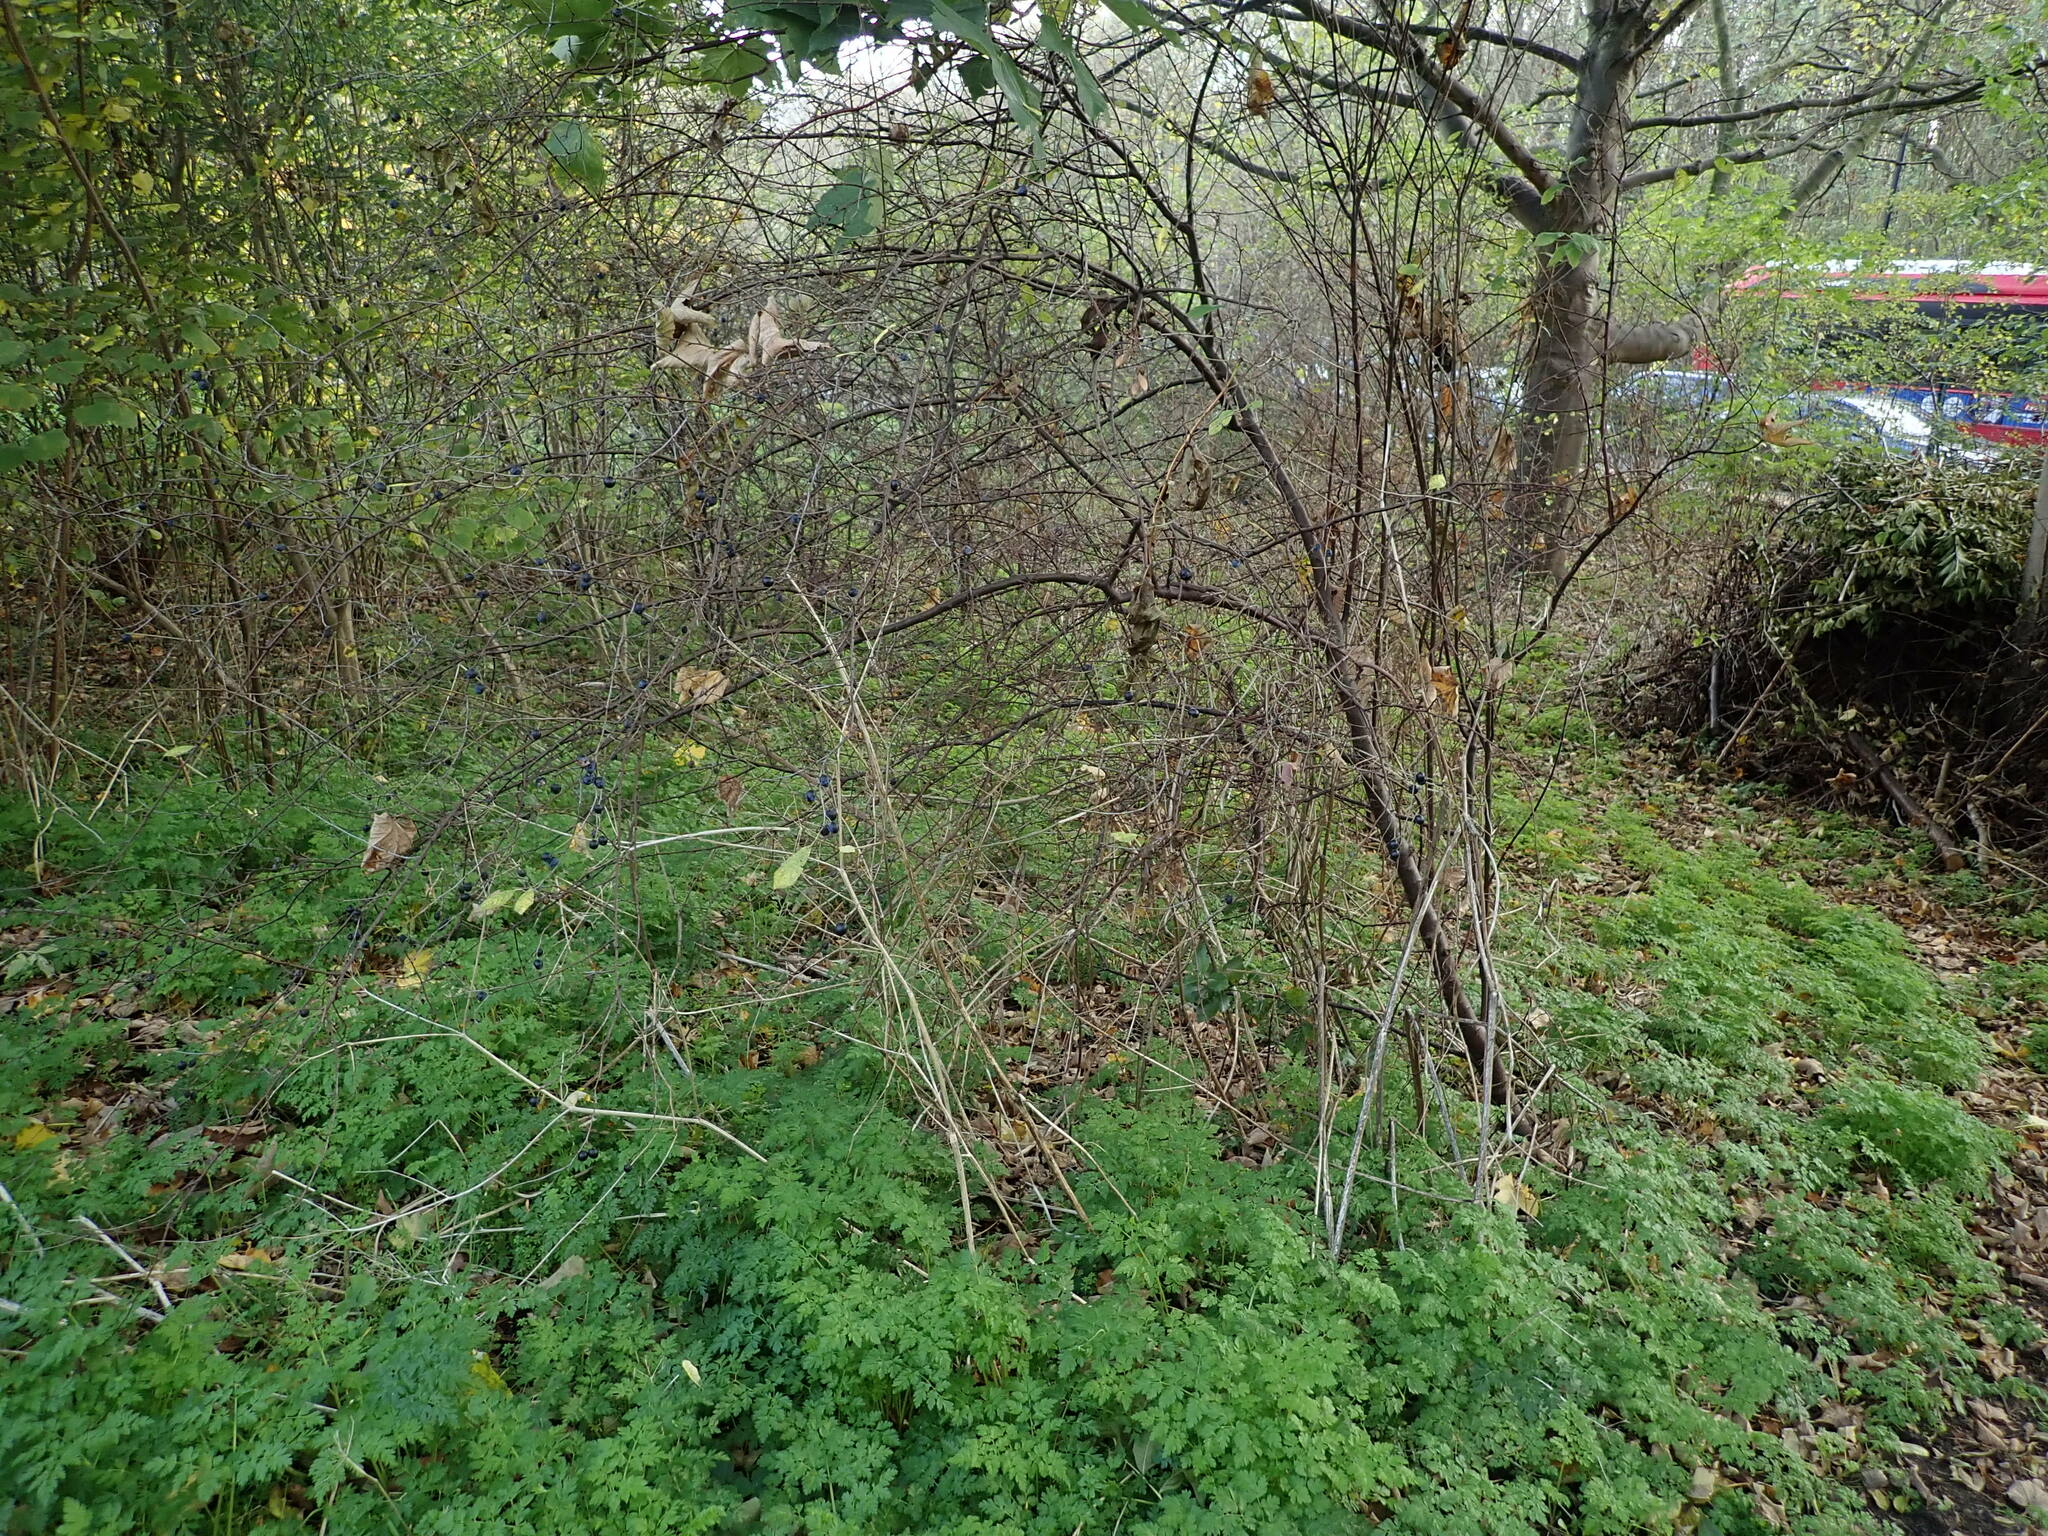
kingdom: Plantae
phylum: Tracheophyta
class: Magnoliopsida
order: Rosales
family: Rosaceae
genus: Prunus
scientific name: Prunus spinosa
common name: Blackthorn
